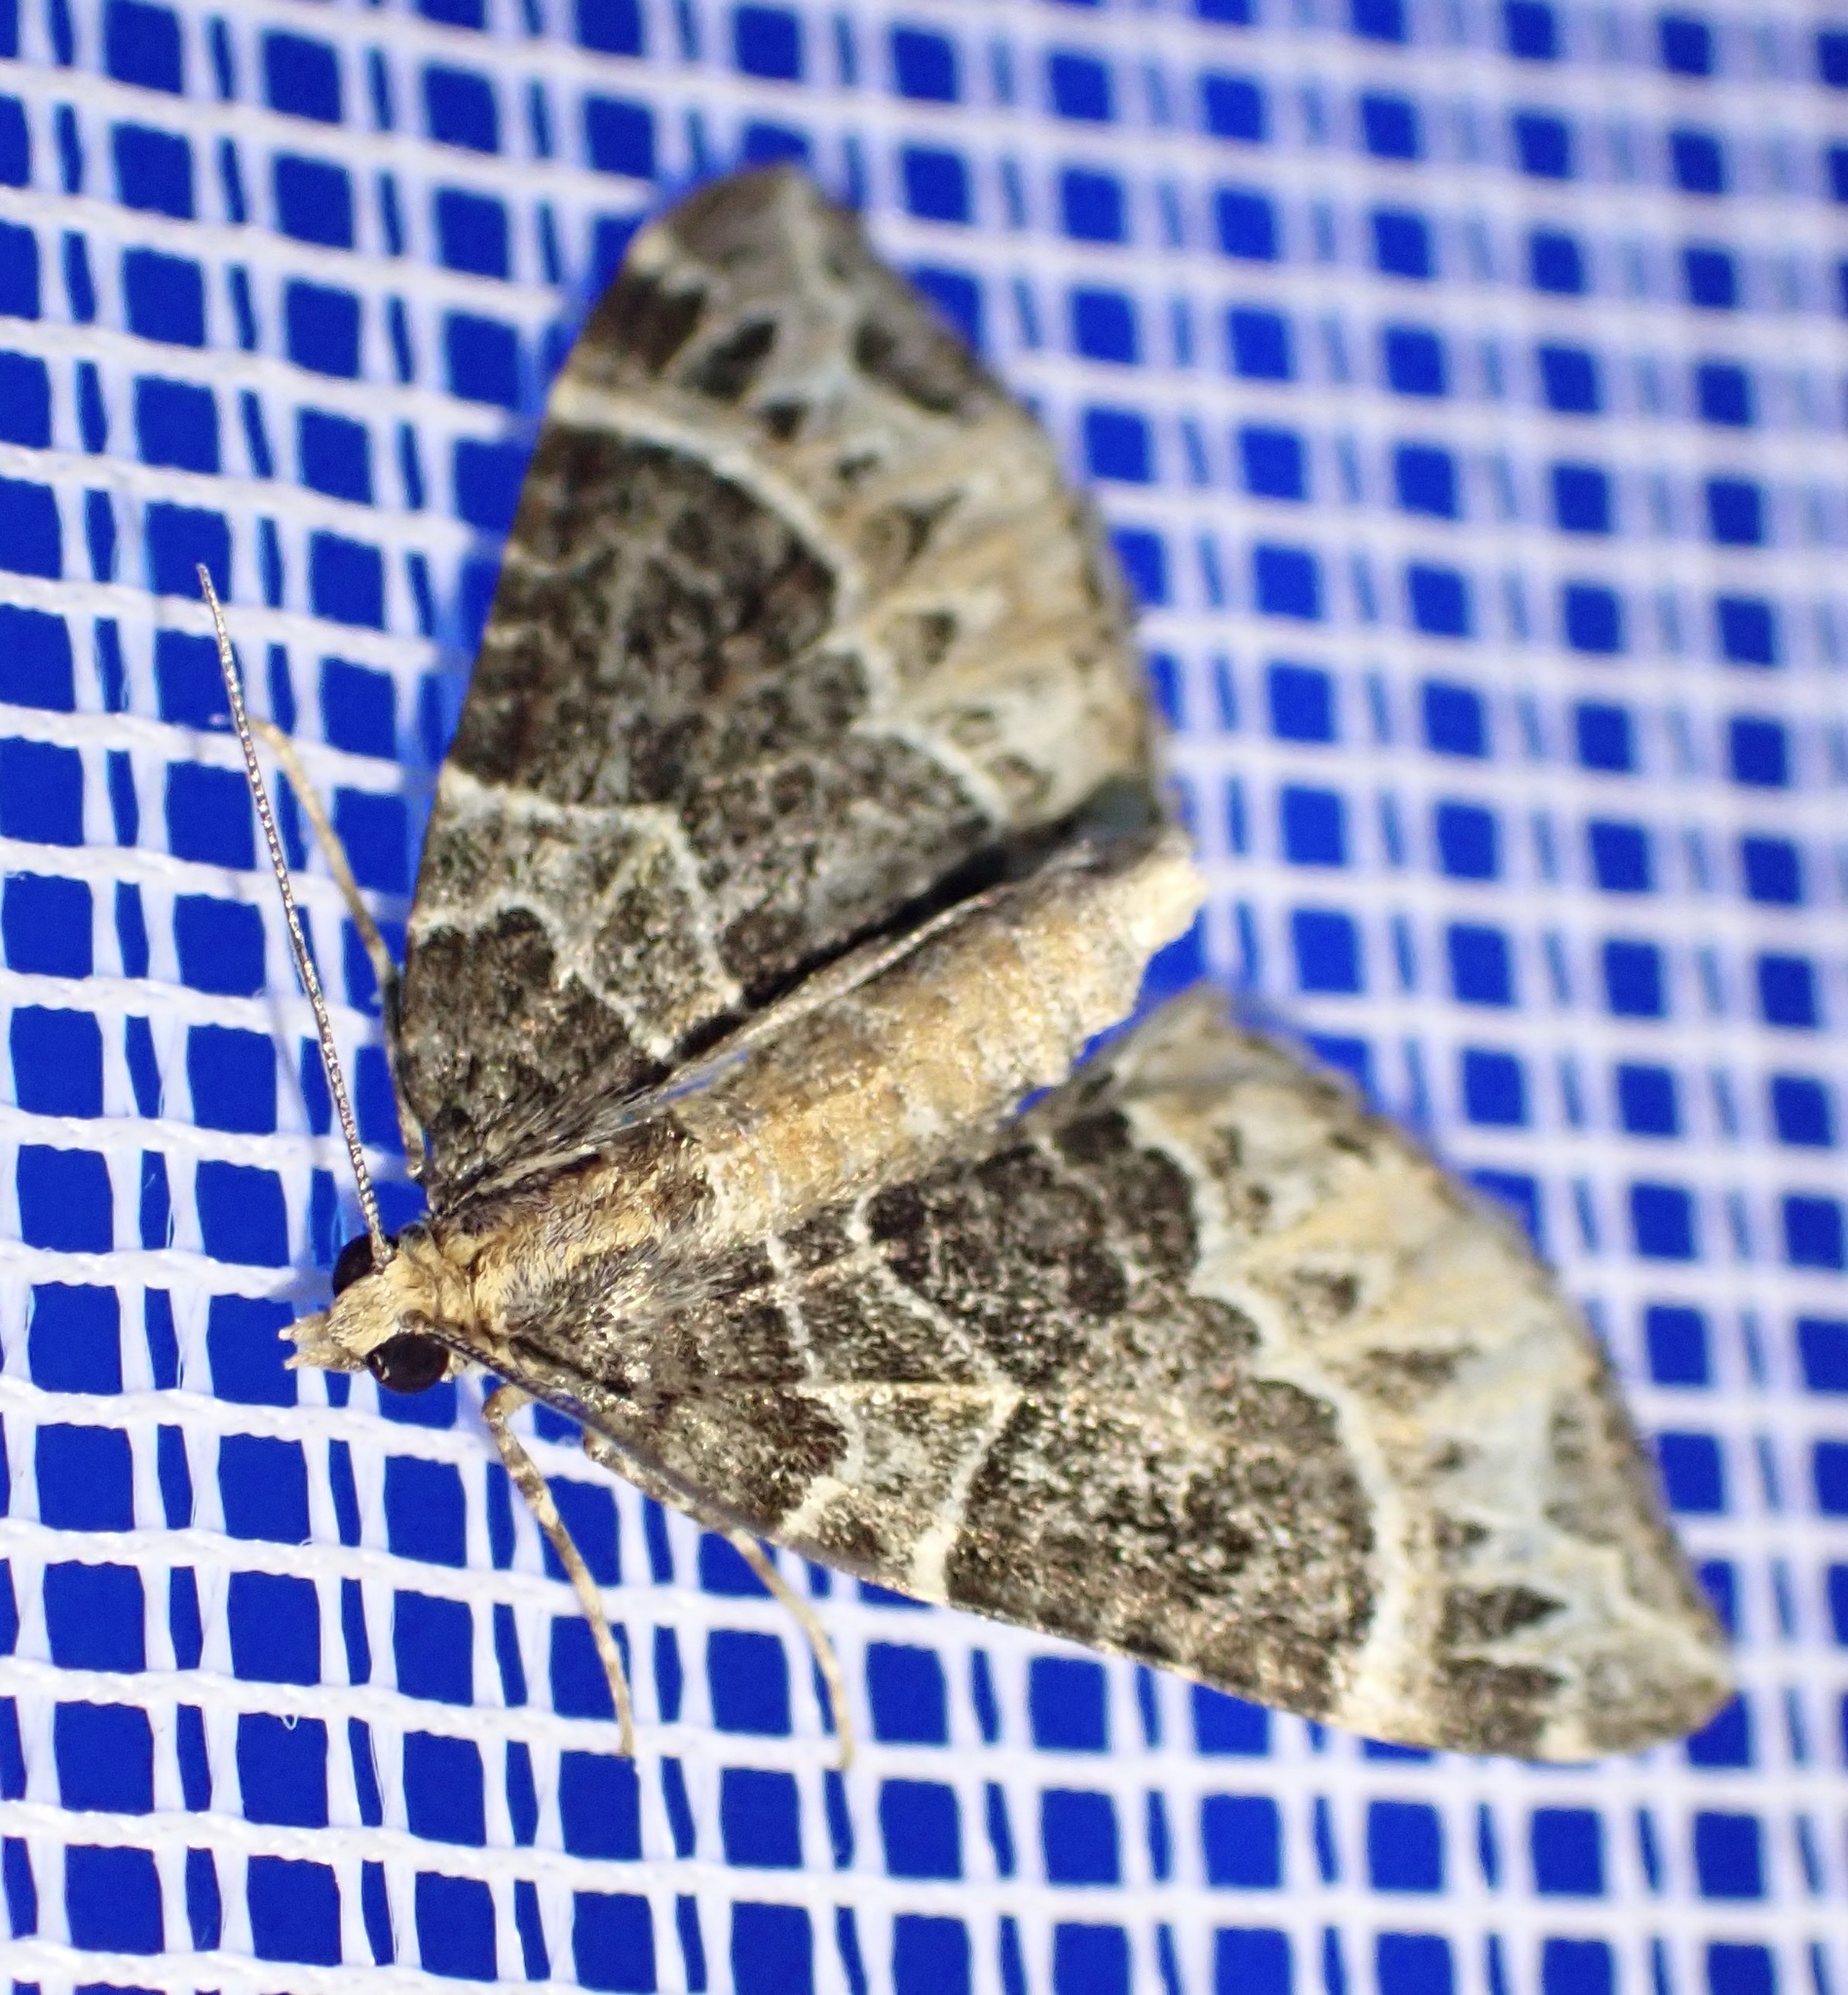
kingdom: Animalia
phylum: Arthropoda
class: Insecta
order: Lepidoptera
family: Geometridae
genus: Ecliptopera
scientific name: Ecliptopera silaceata
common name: Small phoenix
